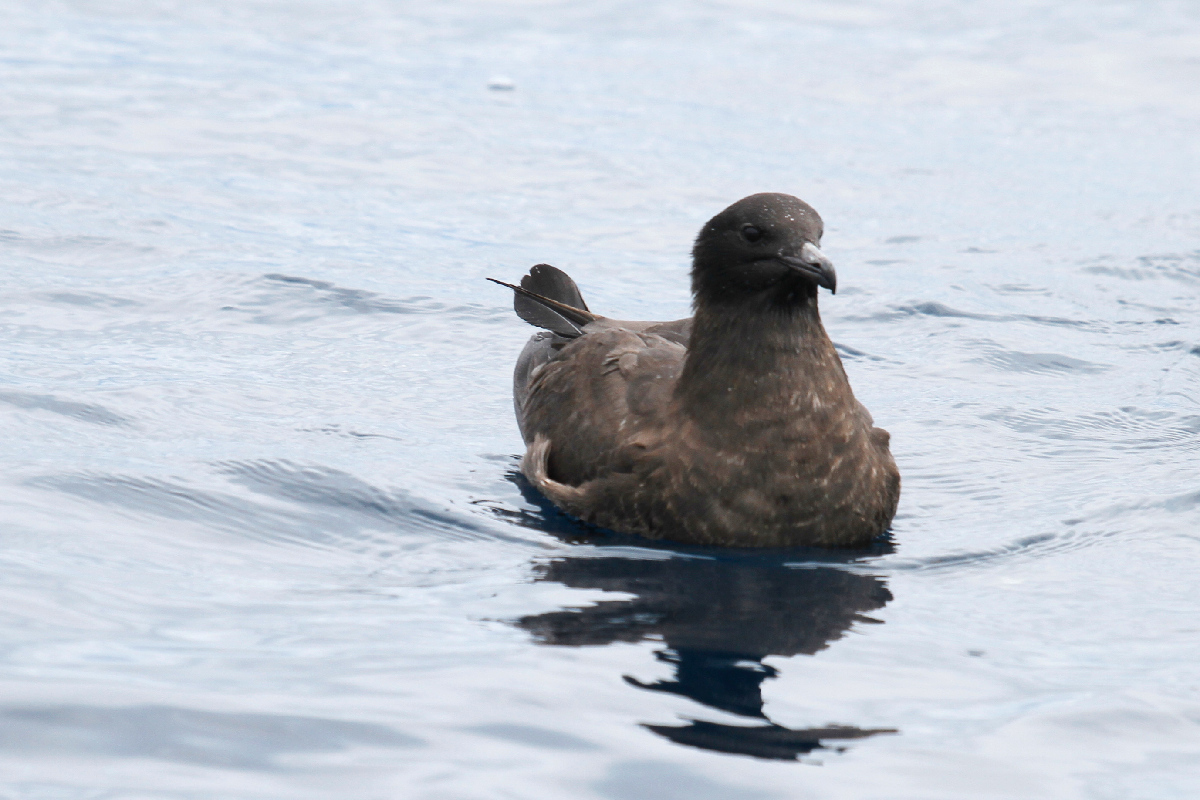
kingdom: Animalia
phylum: Chordata
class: Aves
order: Charadriiformes
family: Stercorariidae
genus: Stercorarius
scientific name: Stercorarius pomarinus
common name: Pomarine jaeger
